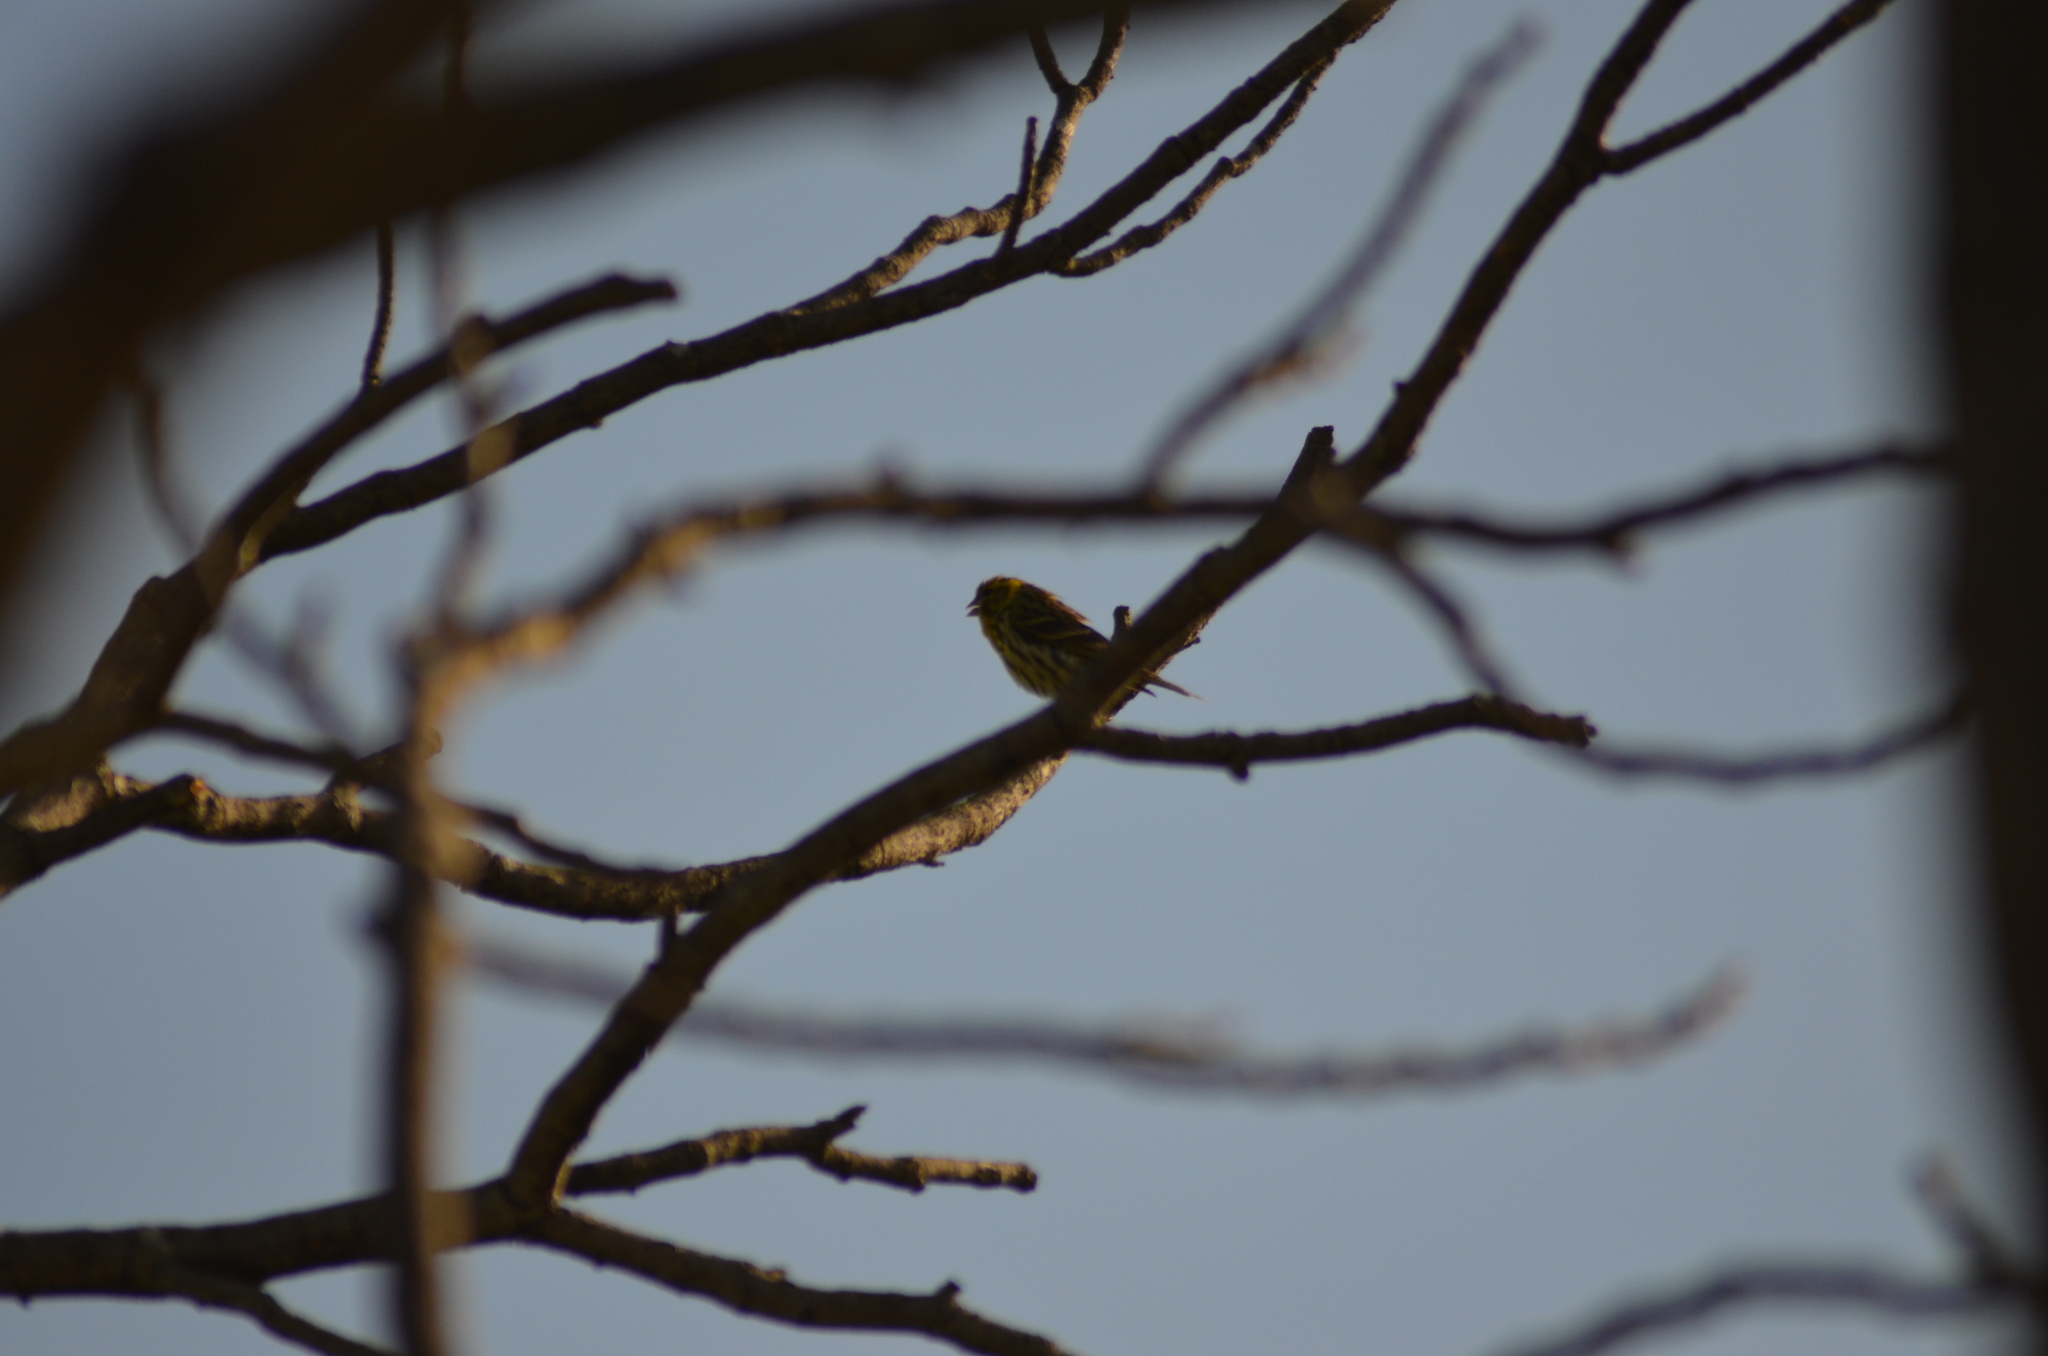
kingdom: Animalia
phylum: Chordata
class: Aves
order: Passeriformes
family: Fringillidae
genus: Serinus
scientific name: Serinus serinus
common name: European serin
